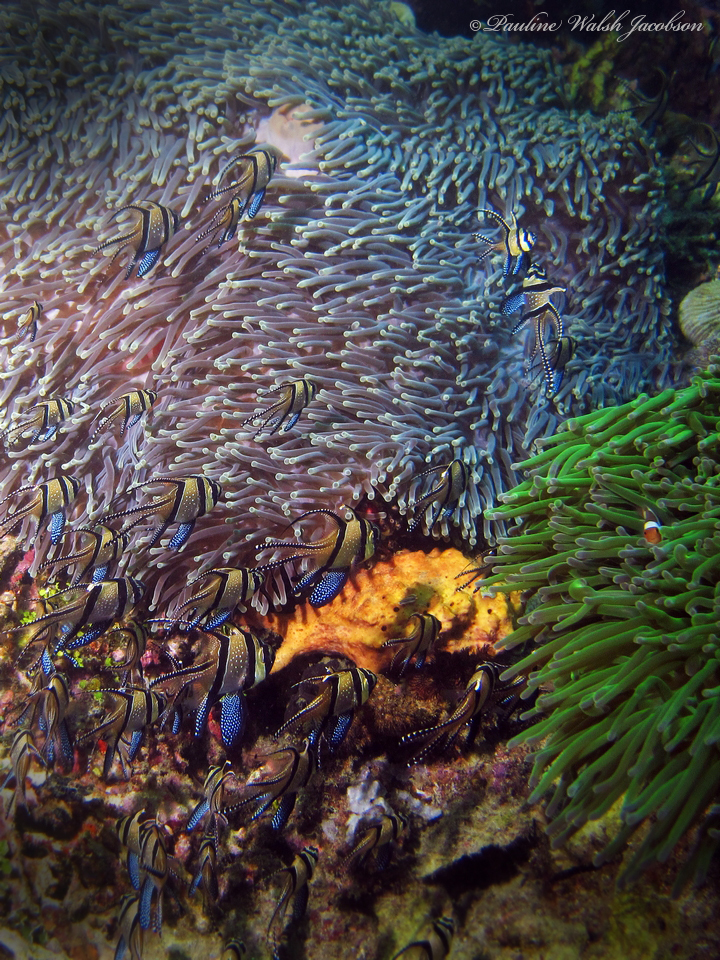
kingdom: Animalia
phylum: Chordata
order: Perciformes
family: Apogonidae
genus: Pterapogon
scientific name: Pterapogon kauderni
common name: Banggai cardinalfish
